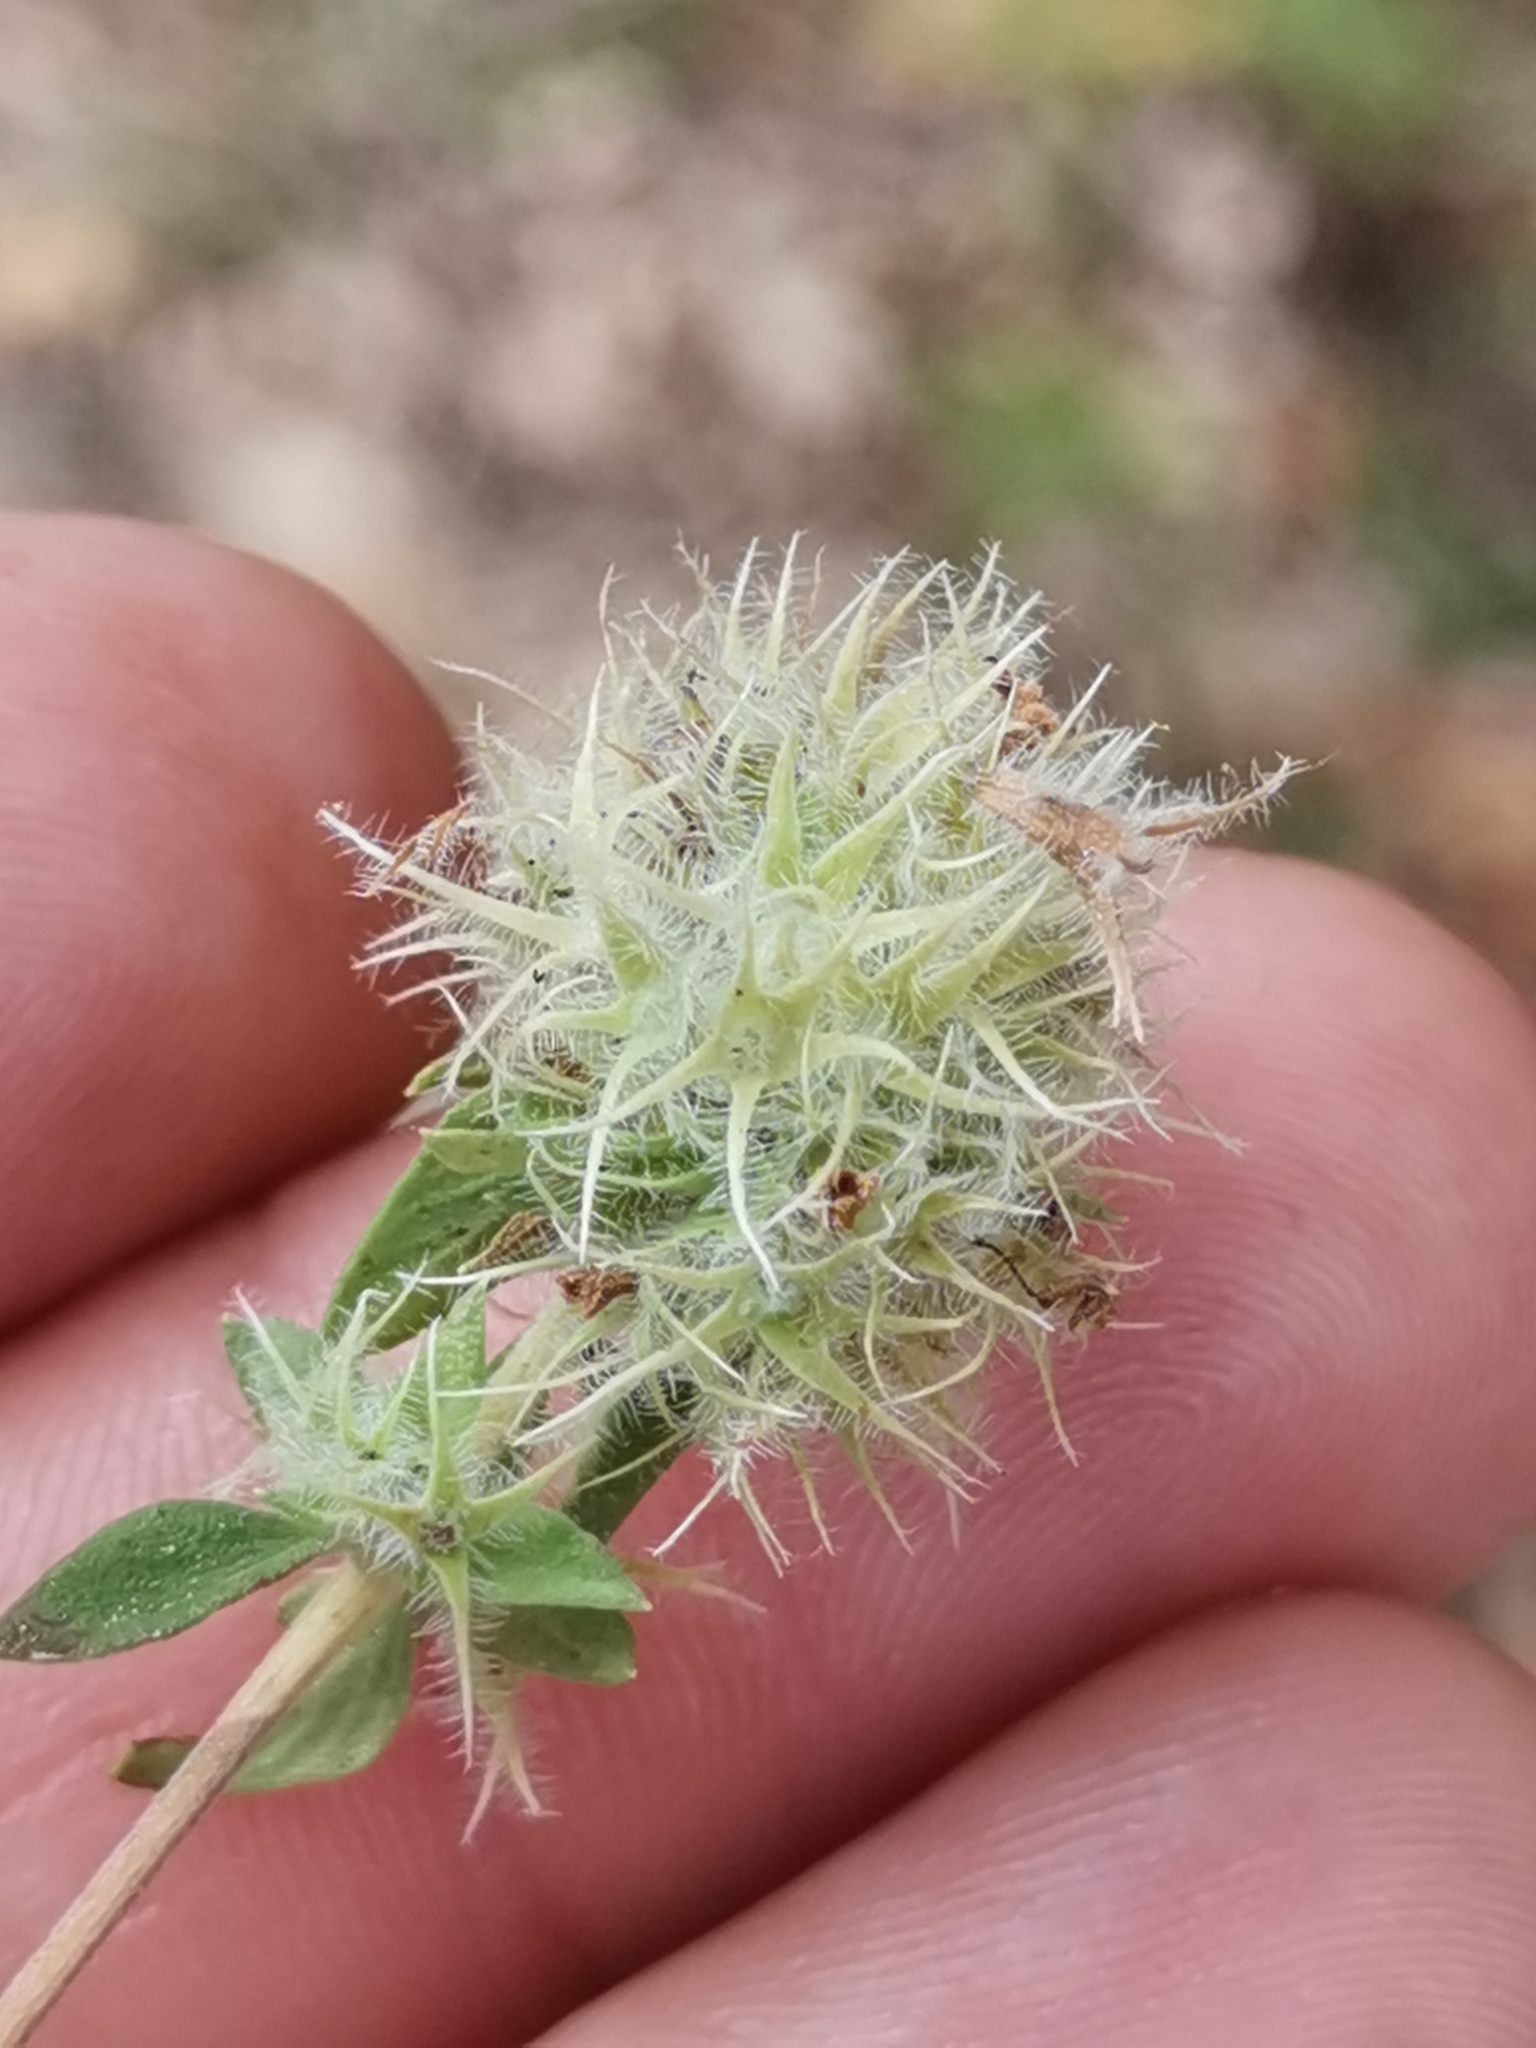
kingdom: Plantae
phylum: Tracheophyta
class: Magnoliopsida
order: Lamiales
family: Lamiaceae
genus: Thymus
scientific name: Thymus mastichina
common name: Mastic thyme
